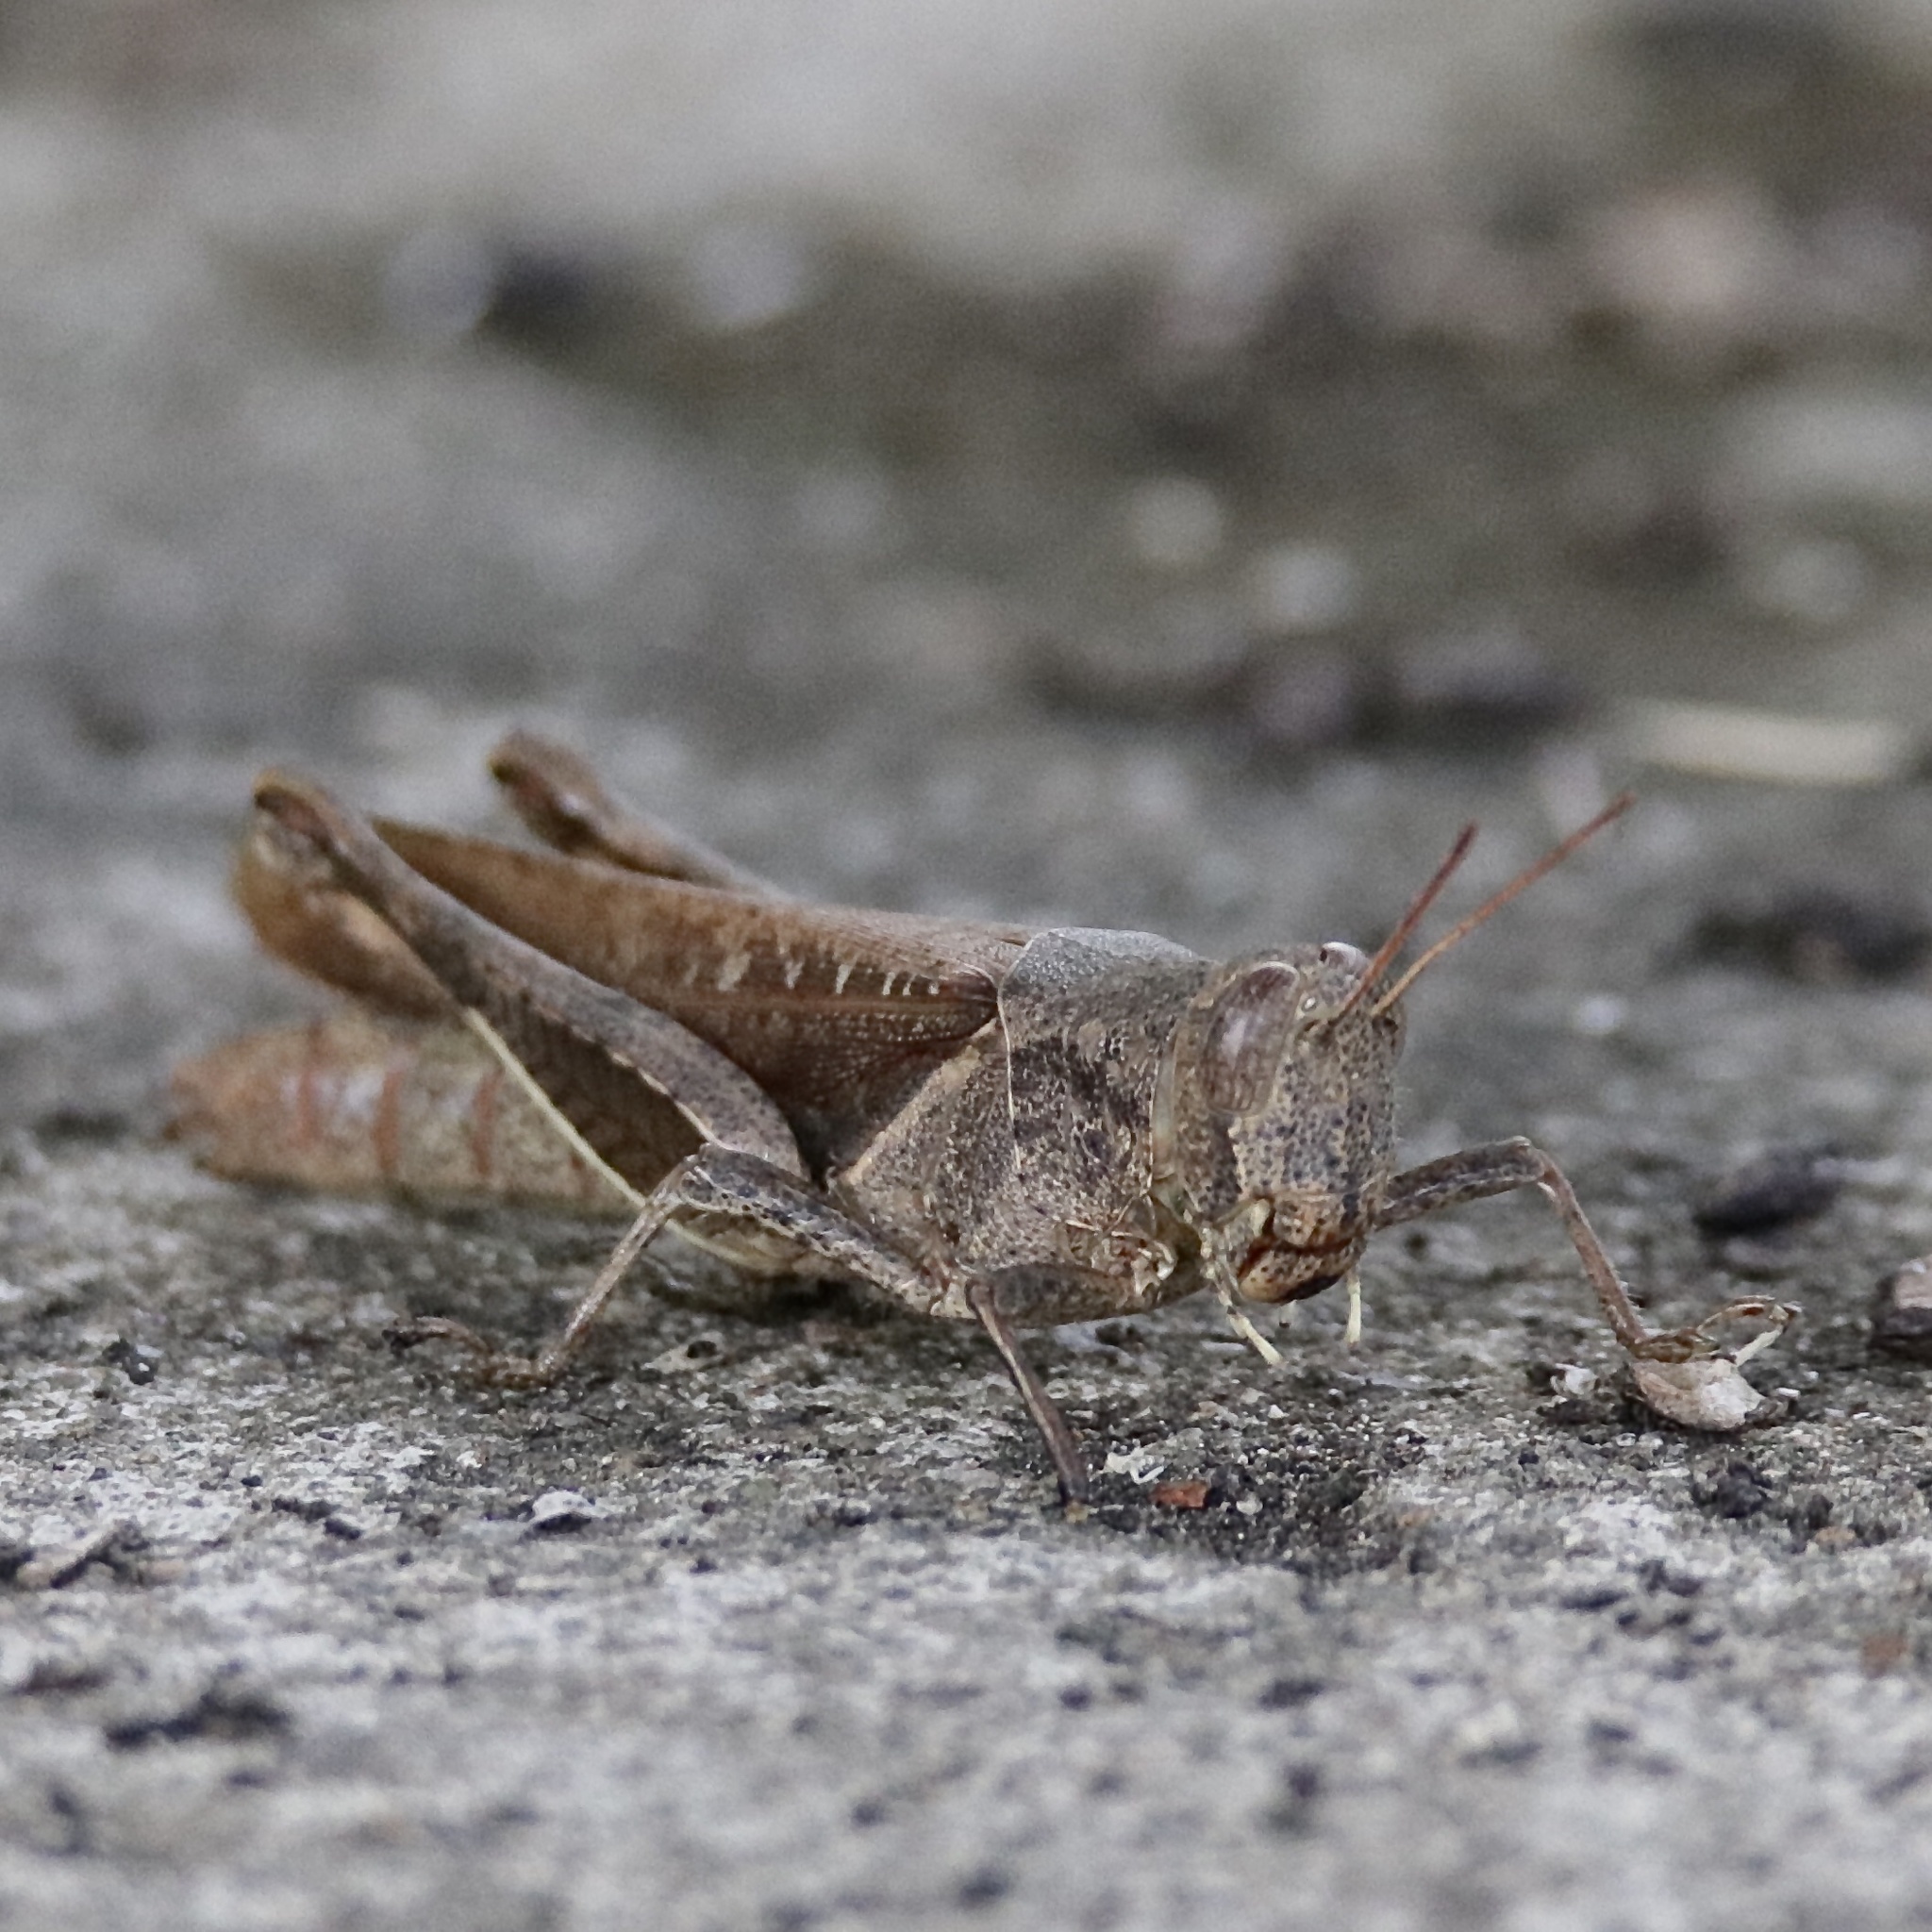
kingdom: Animalia
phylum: Arthropoda
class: Insecta
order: Orthoptera
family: Acrididae
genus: Abracris
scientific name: Abracris flavolineata
